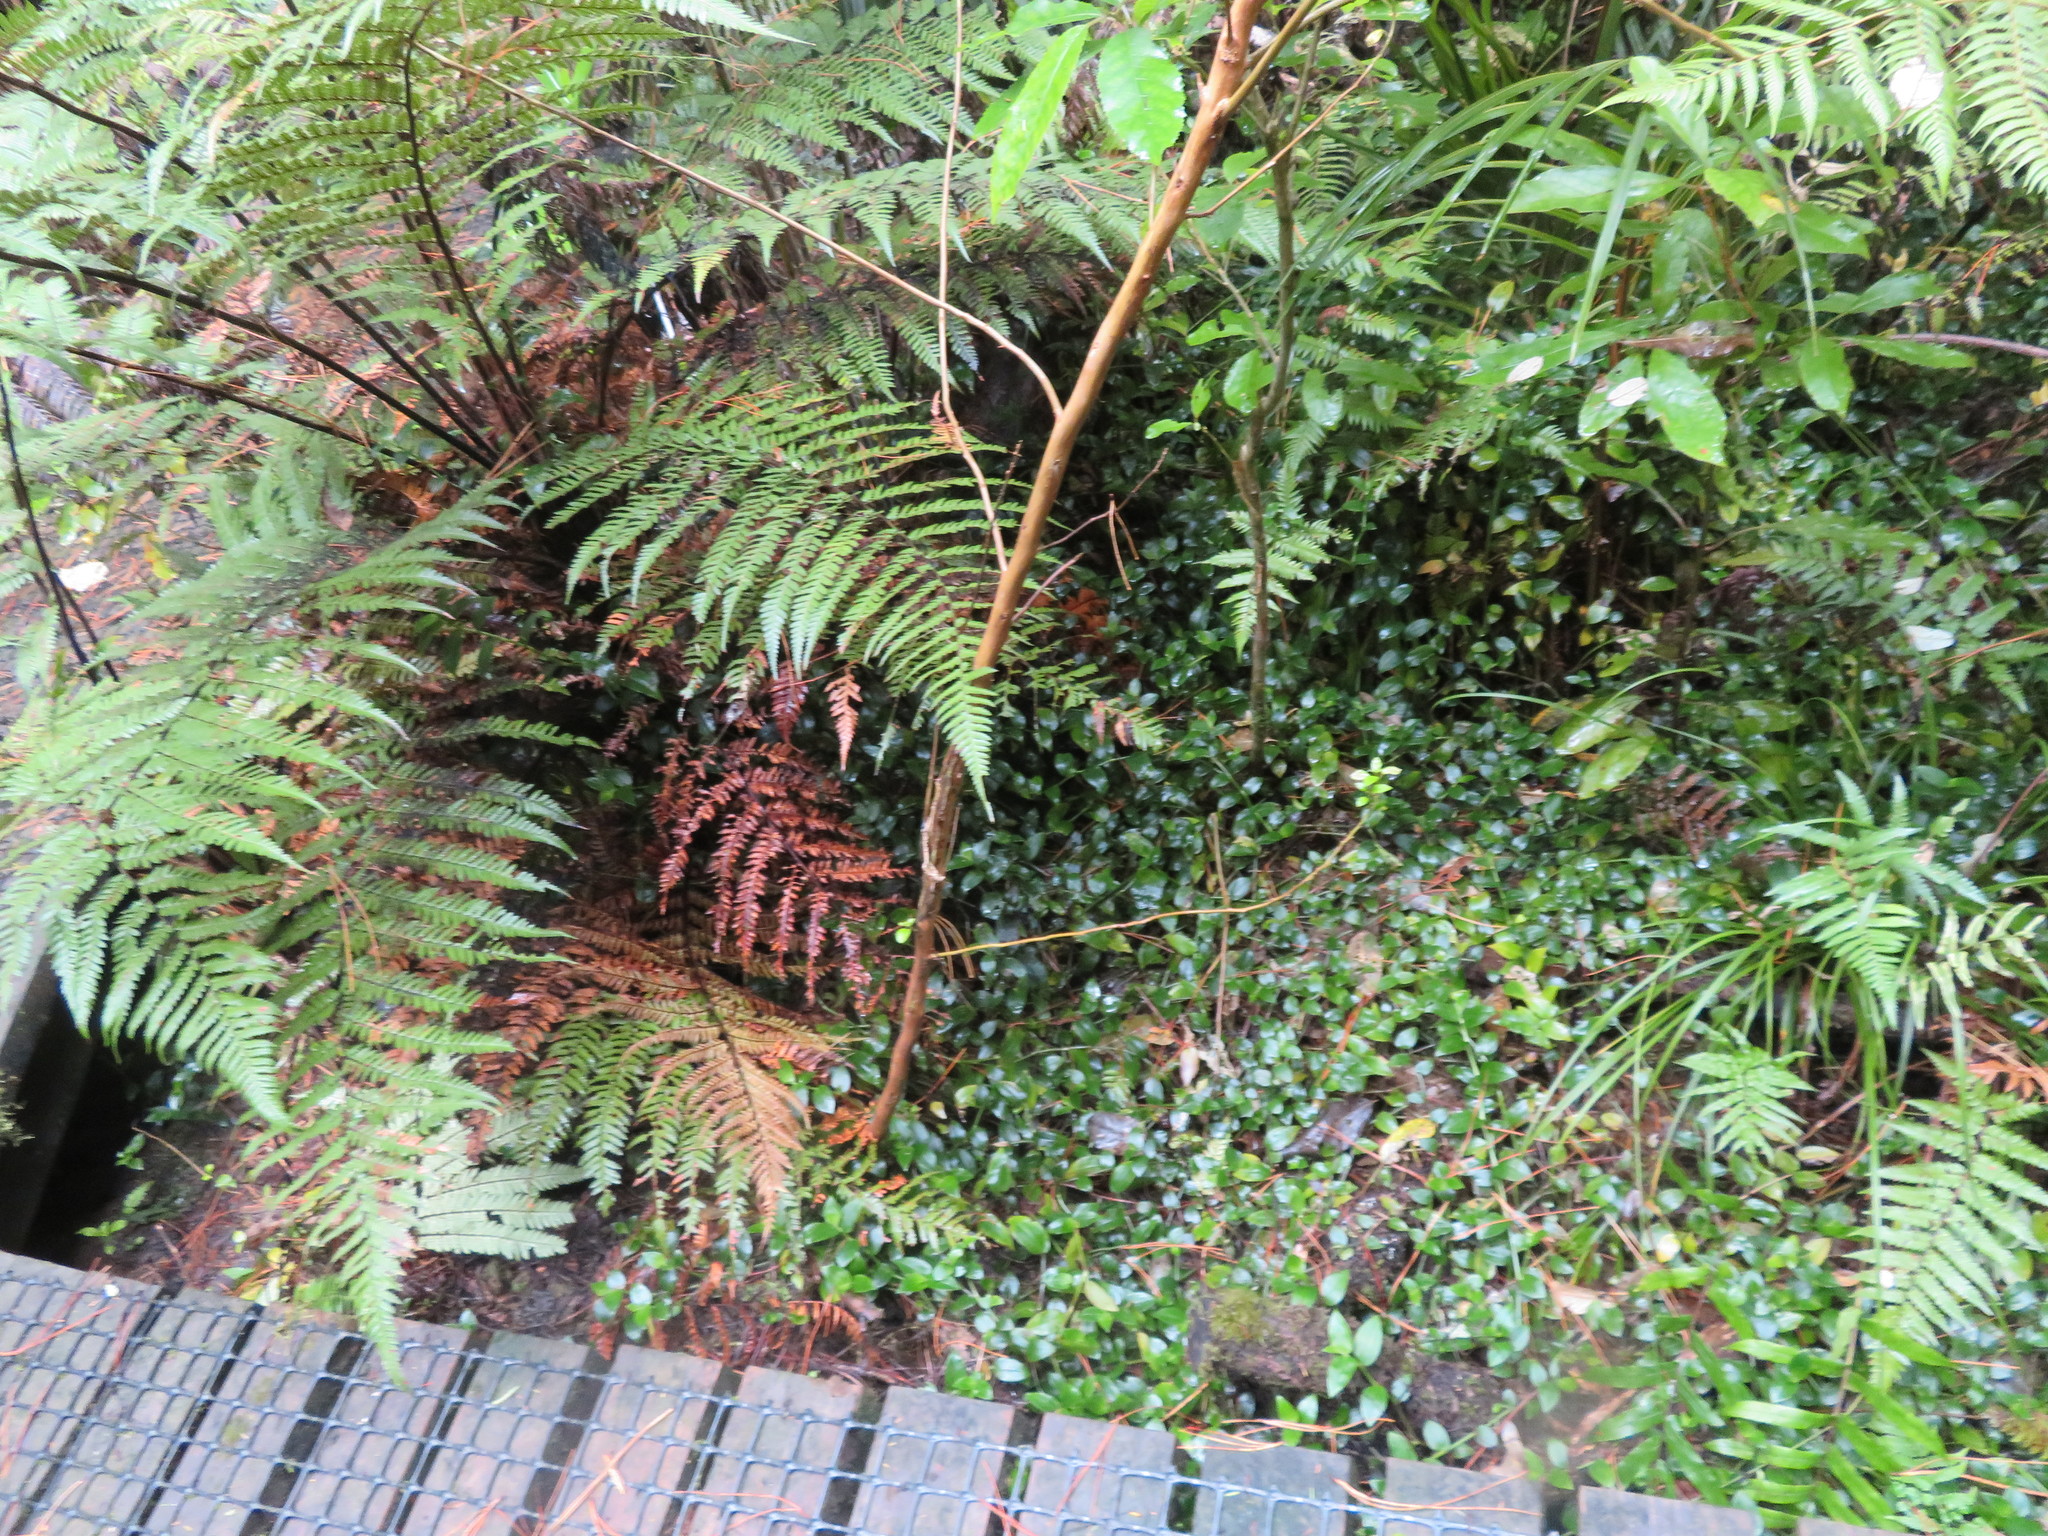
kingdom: Plantae
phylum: Tracheophyta
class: Polypodiopsida
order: Cyatheales
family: Dicksoniaceae
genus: Dicksonia
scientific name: Dicksonia squarrosa
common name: Hard treefern
